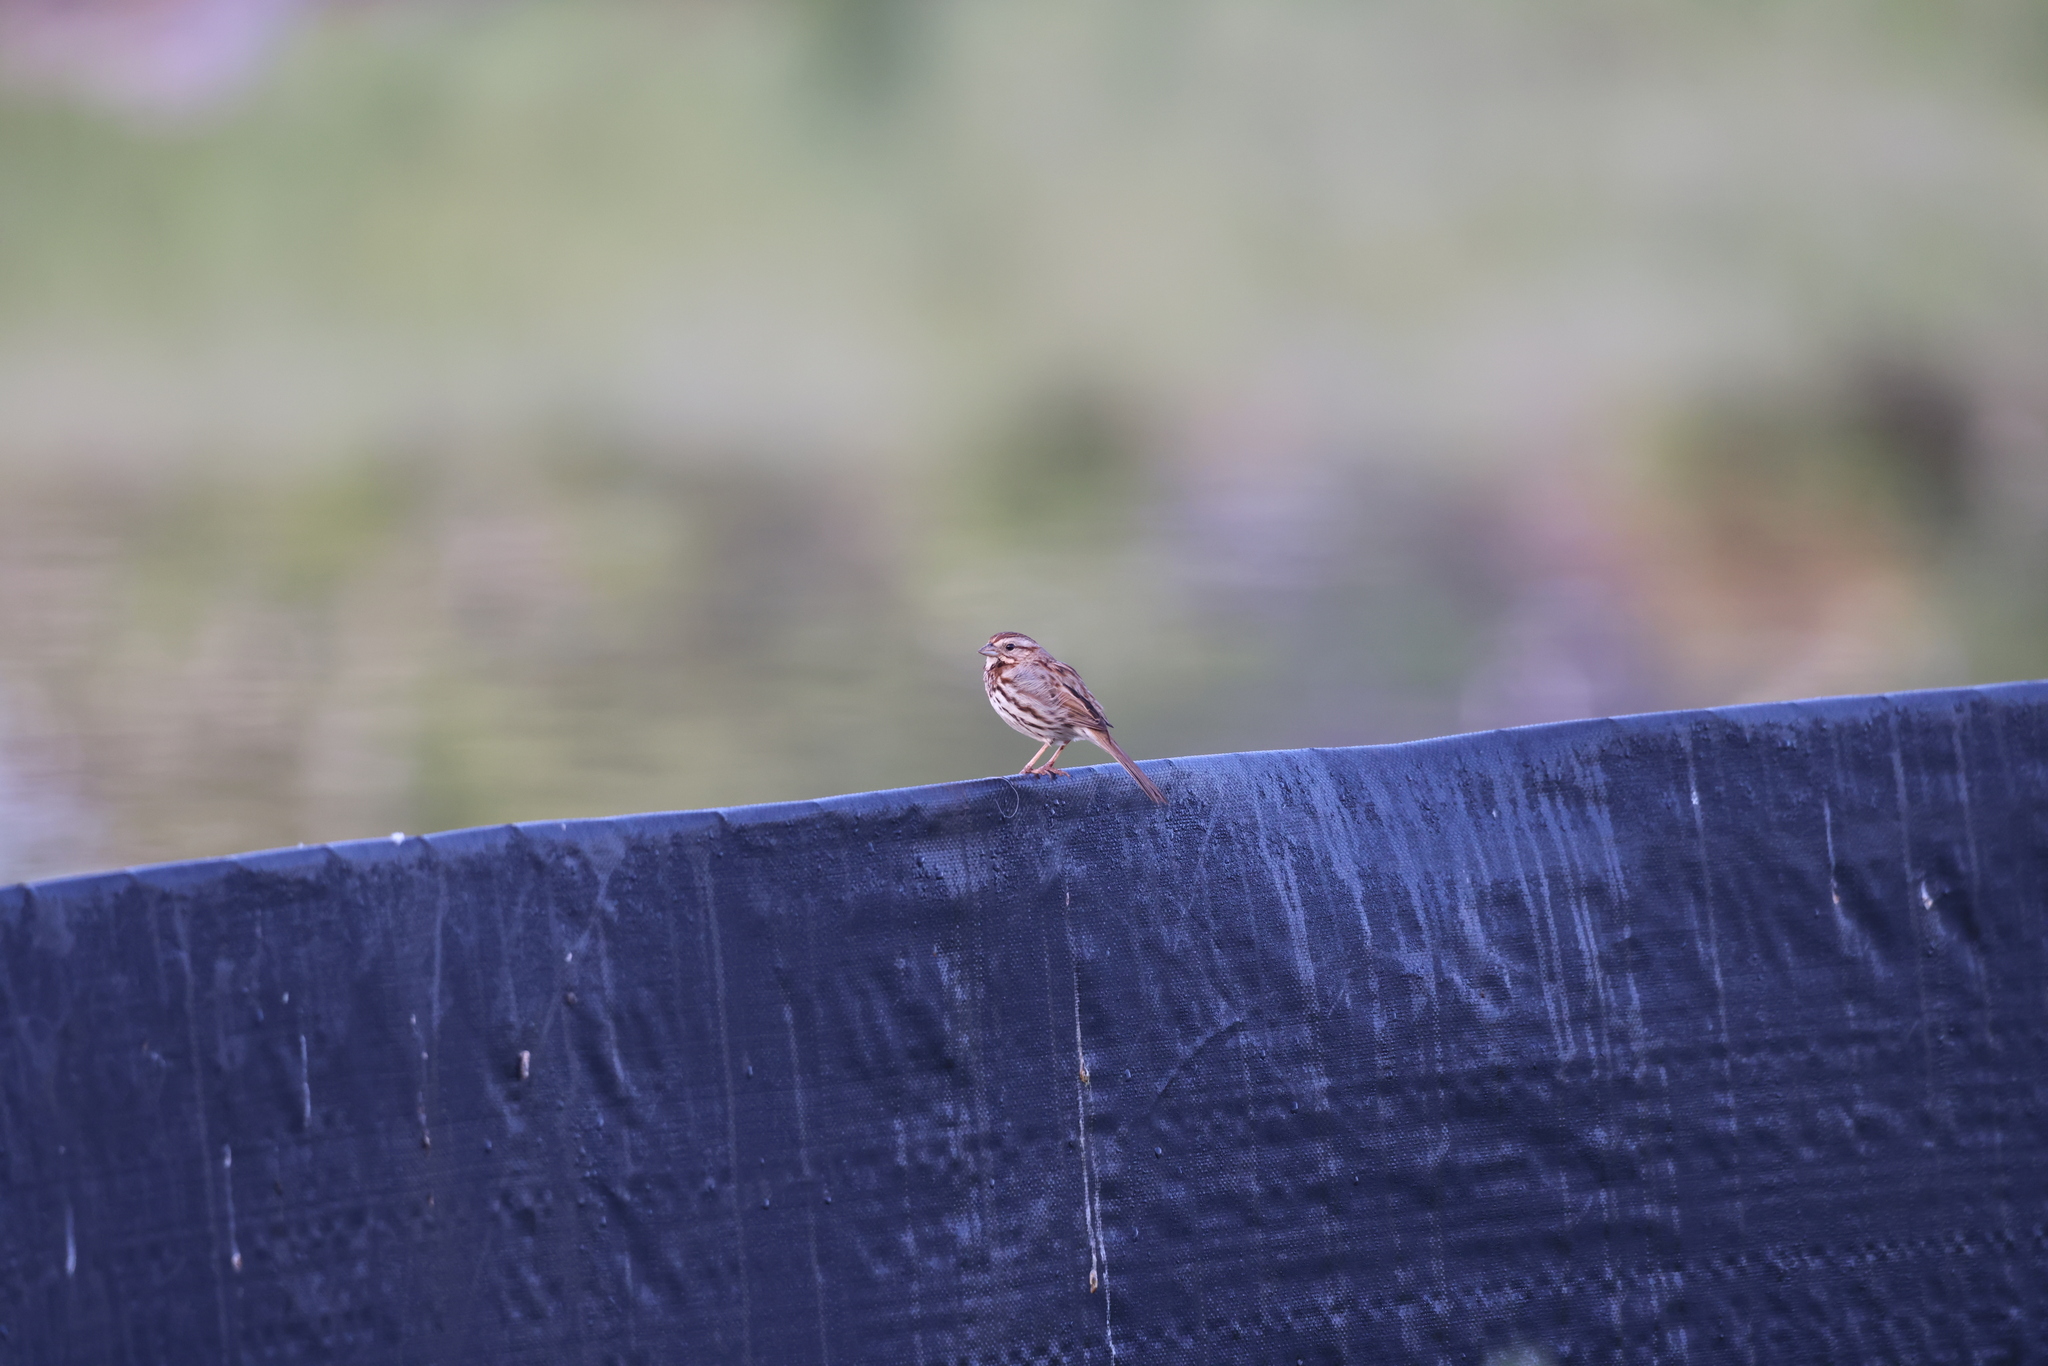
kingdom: Animalia
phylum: Chordata
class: Aves
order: Passeriformes
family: Passerellidae
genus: Melospiza
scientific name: Melospiza melodia
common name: Song sparrow
